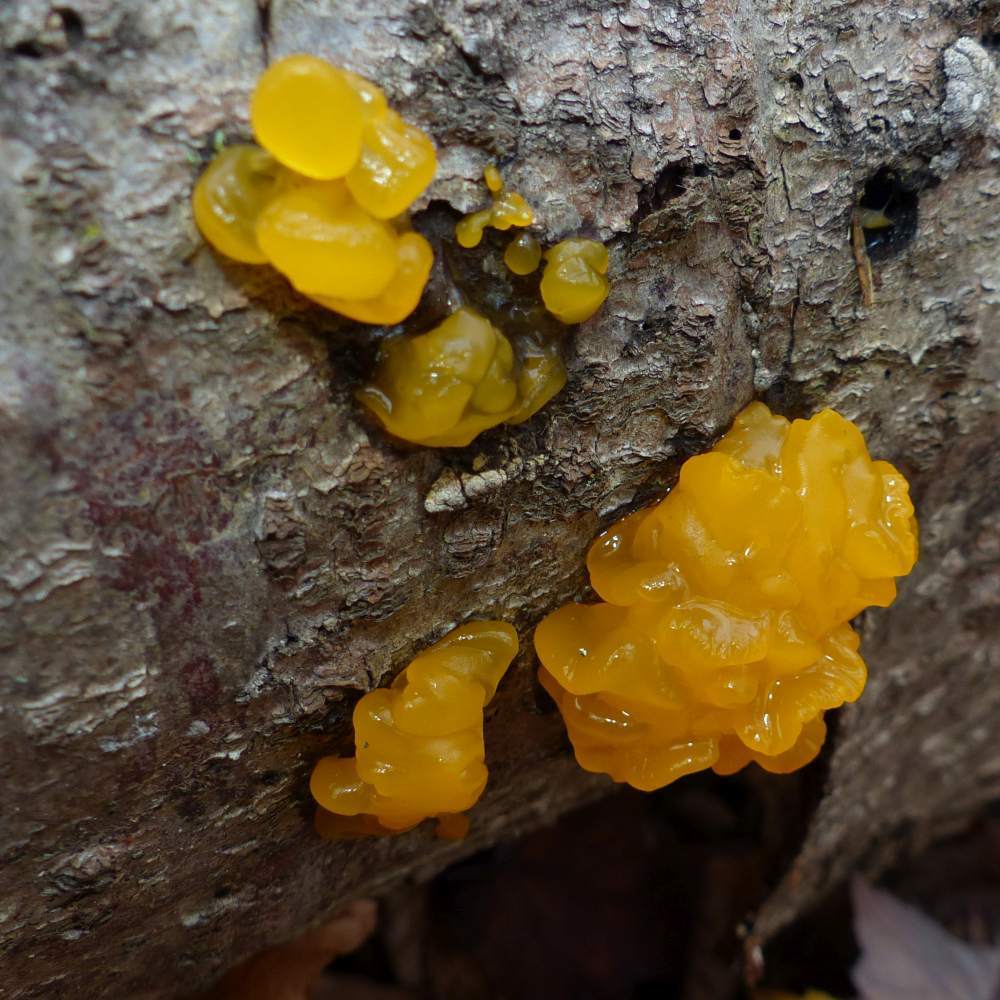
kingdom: Fungi
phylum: Basidiomycota
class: Dacrymycetes
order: Dacrymycetales
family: Dacrymycetaceae
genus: Dacrymyces
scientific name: Dacrymyces chrysospermus
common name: Orange jelly spot
